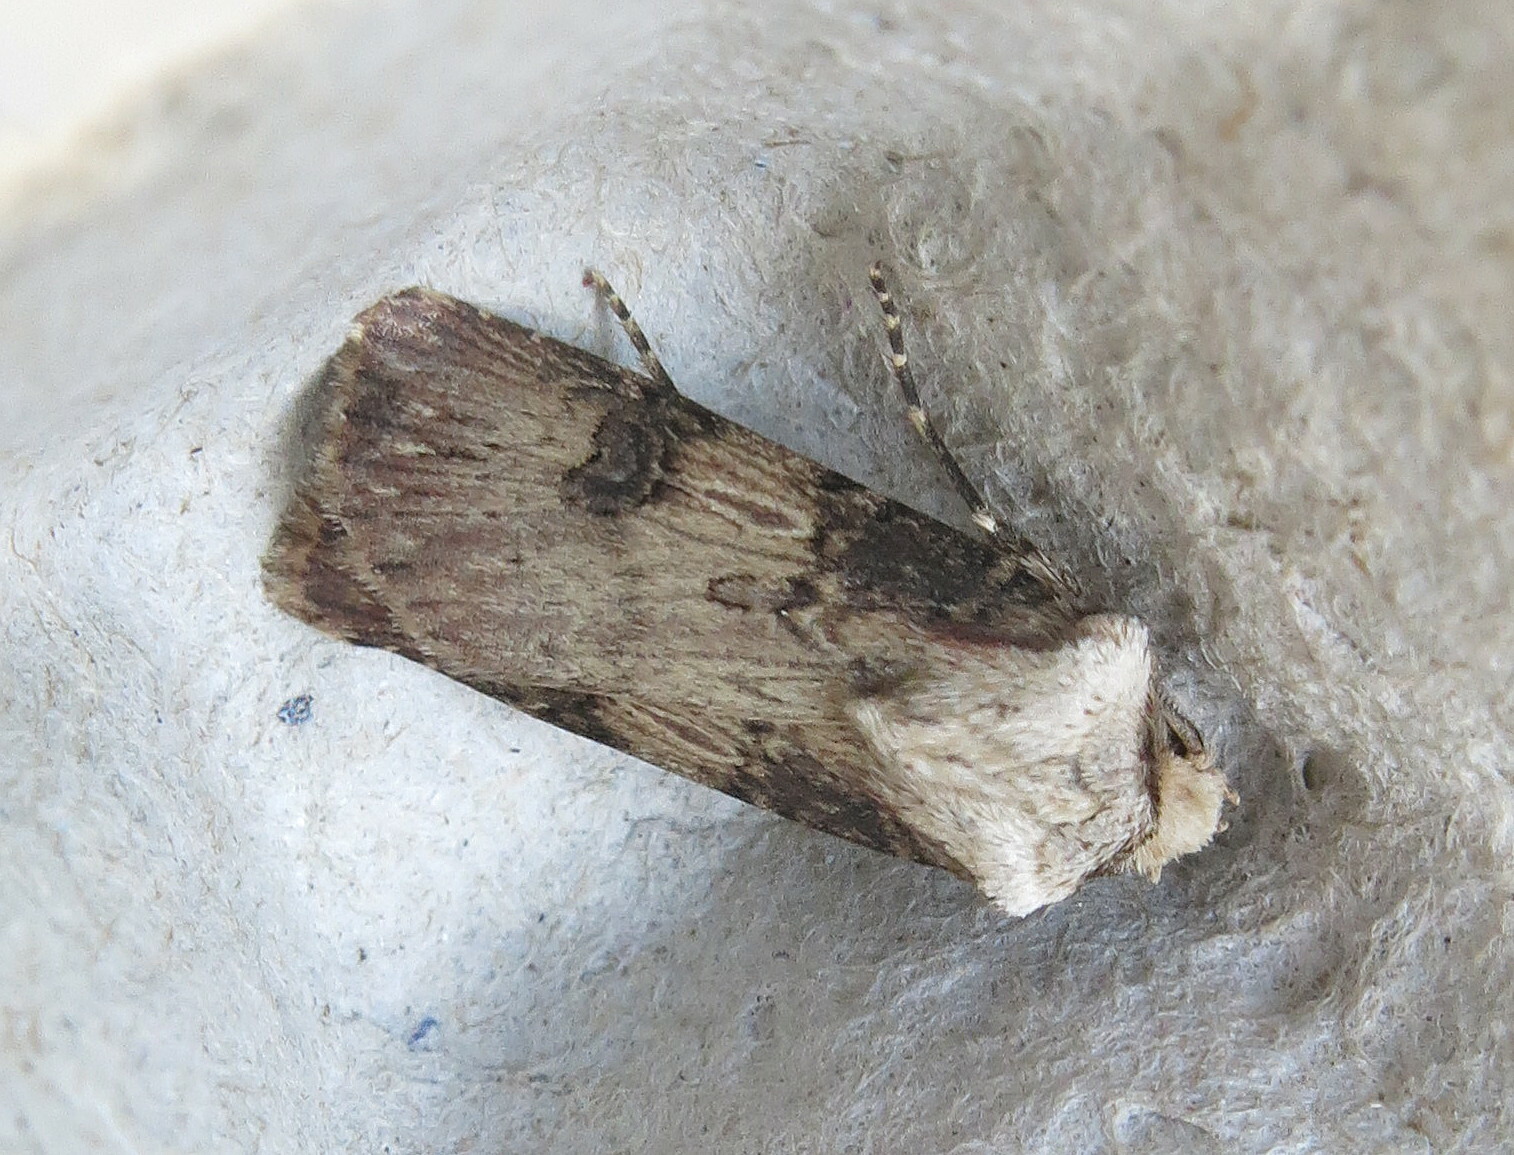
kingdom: Animalia
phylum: Arthropoda
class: Insecta
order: Lepidoptera
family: Noctuidae
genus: Agrotis
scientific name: Agrotis puta
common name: Shuttle-shaped dart
